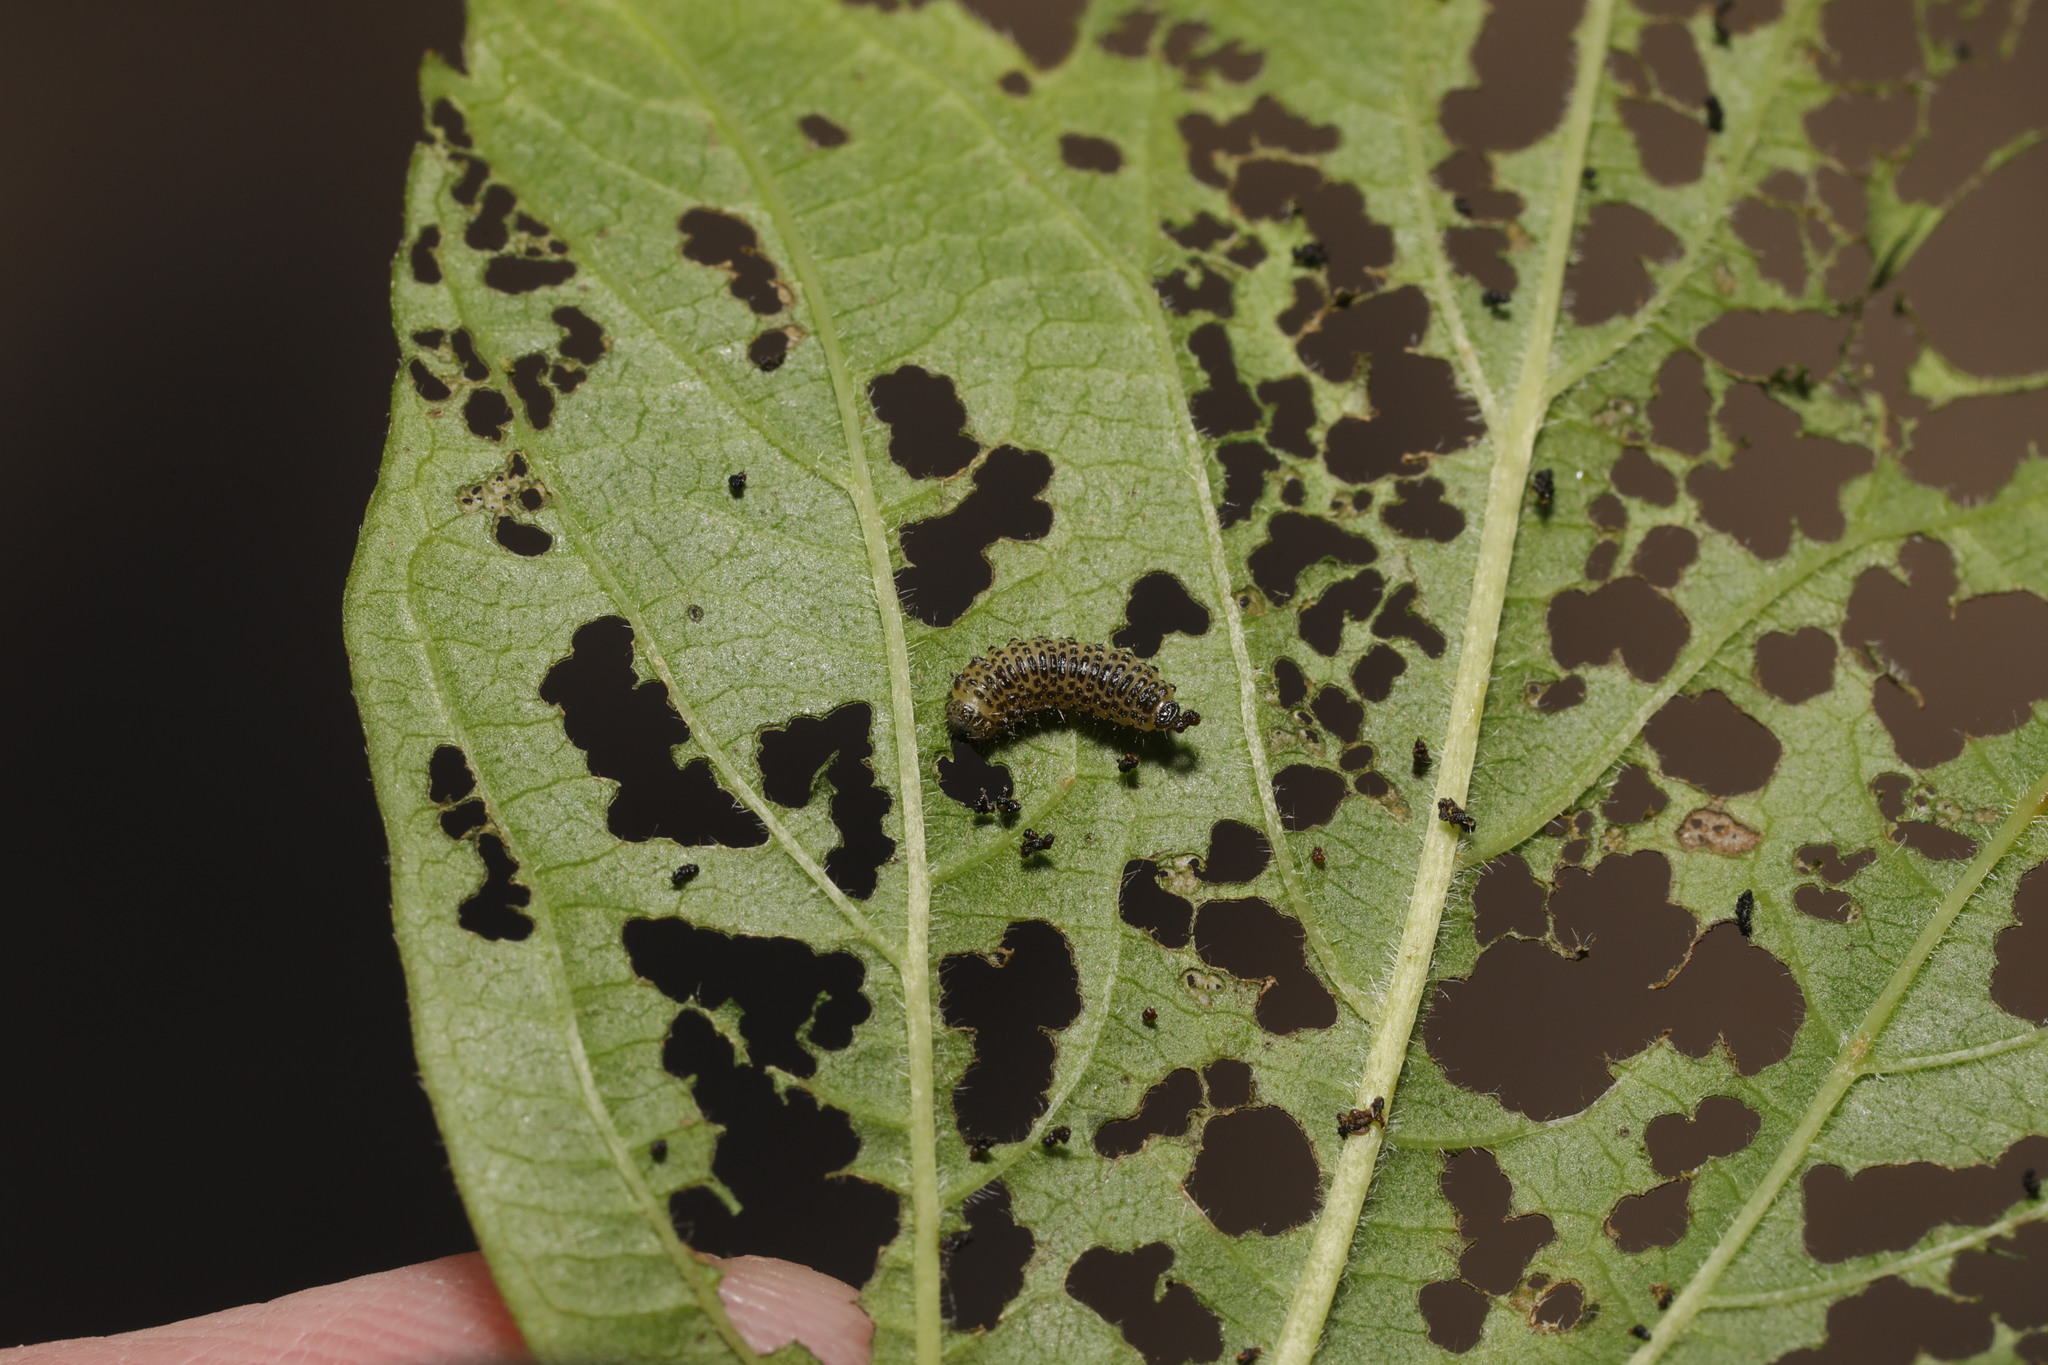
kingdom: Animalia
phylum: Arthropoda
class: Insecta
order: Coleoptera
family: Chrysomelidae
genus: Pyrrhalta
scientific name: Pyrrhalta viburni
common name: Guelder-rose leaf beetle
